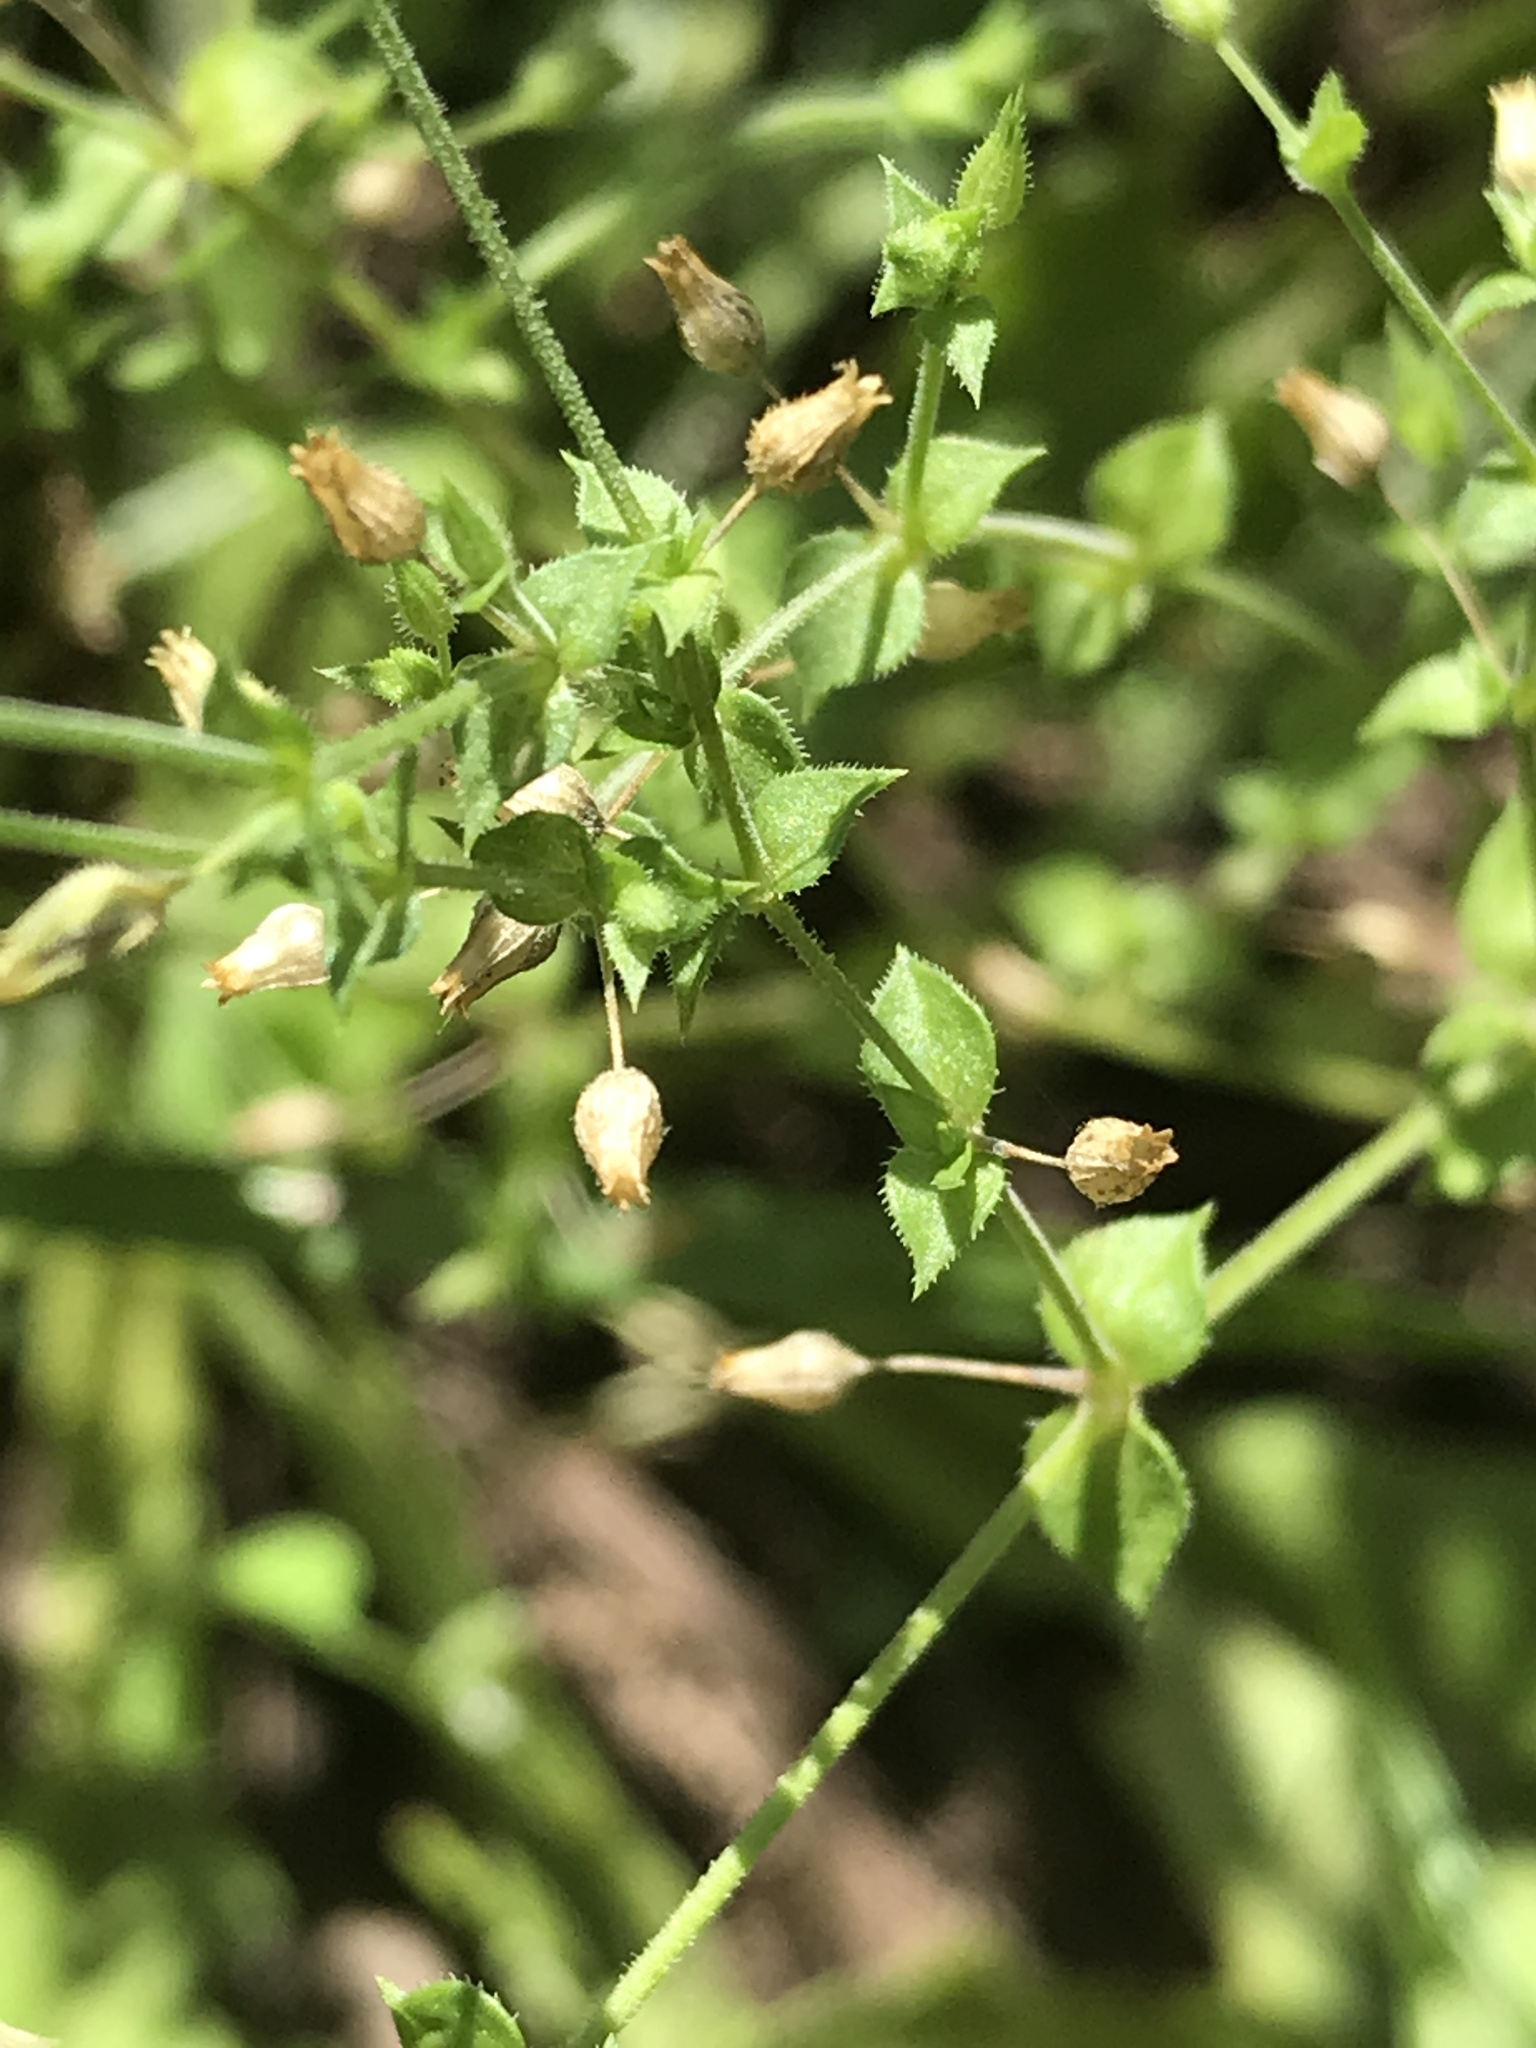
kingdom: Plantae
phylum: Tracheophyta
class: Magnoliopsida
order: Caryophyllales
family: Caryophyllaceae
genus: Arenaria
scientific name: Arenaria serpyllifolia
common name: Thyme-leaved sandwort
